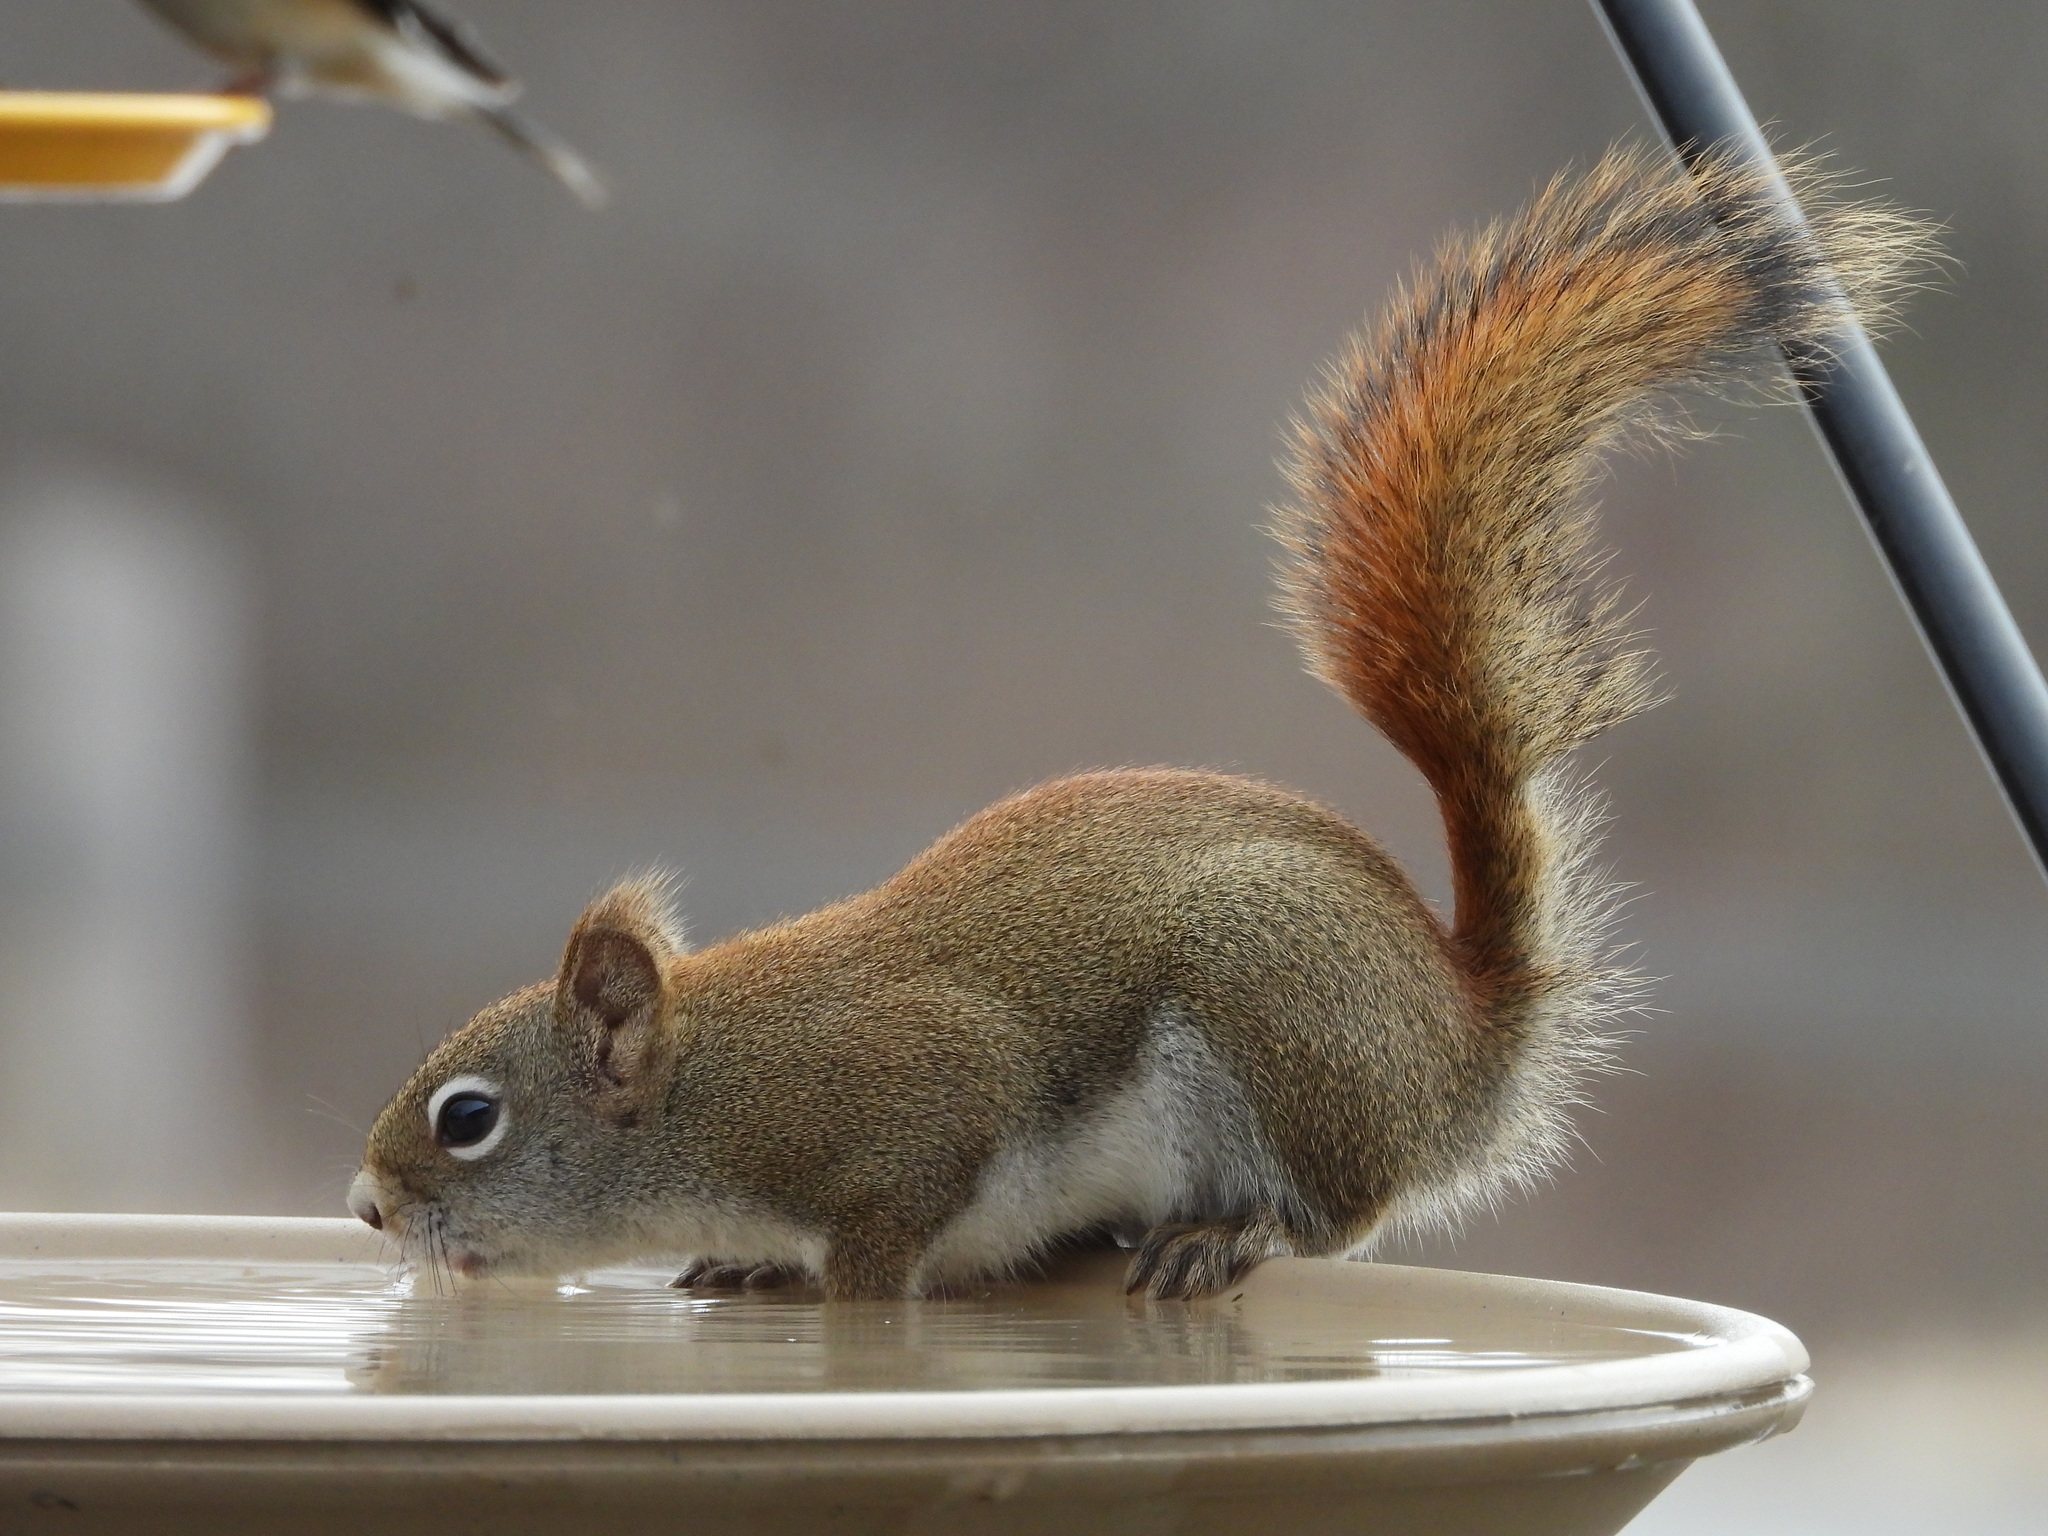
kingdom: Animalia
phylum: Chordata
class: Mammalia
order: Rodentia
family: Sciuridae
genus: Tamiasciurus
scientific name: Tamiasciurus hudsonicus
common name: Red squirrel
